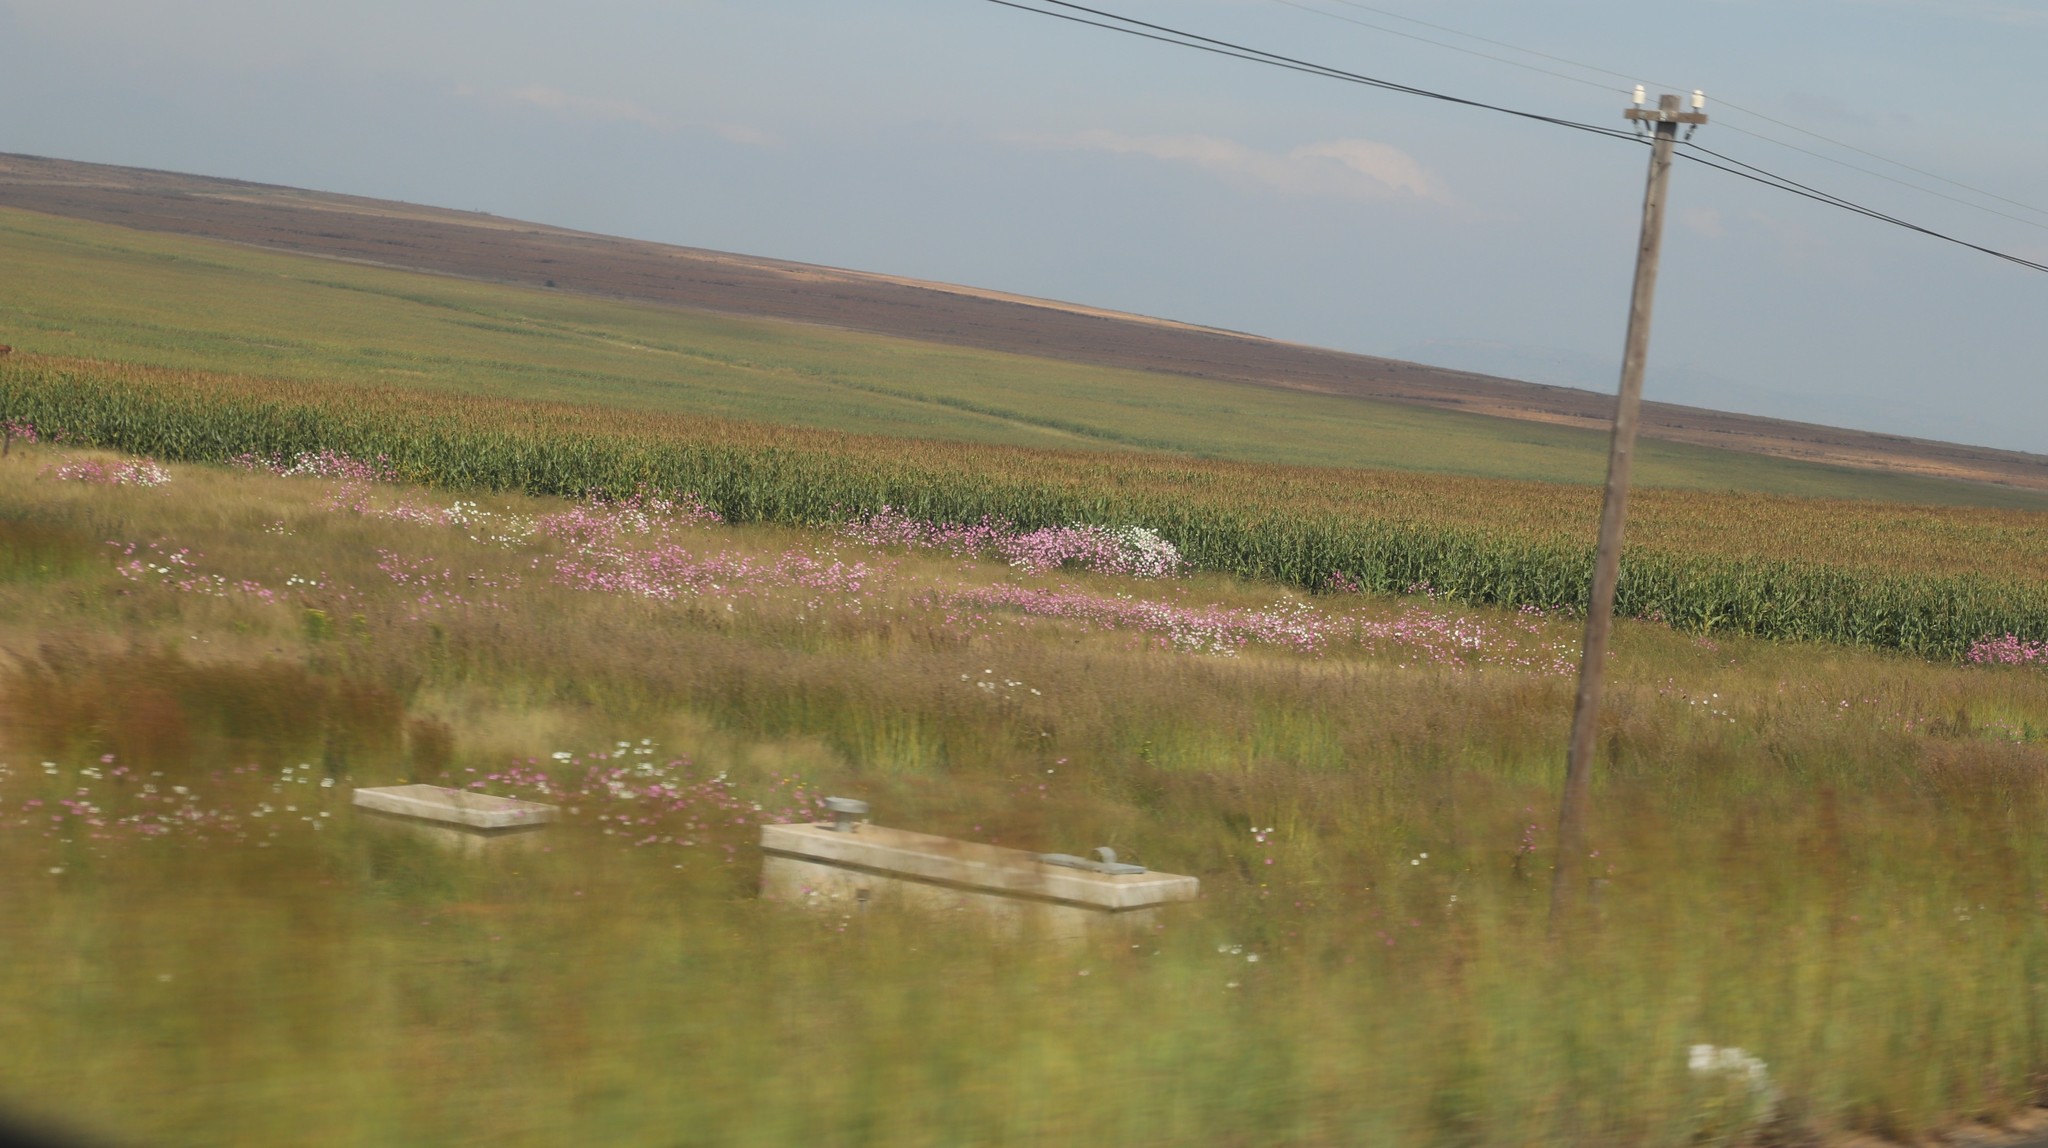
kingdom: Plantae
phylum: Tracheophyta
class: Magnoliopsida
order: Asterales
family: Asteraceae
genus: Cosmos
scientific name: Cosmos bipinnatus
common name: Garden cosmos
